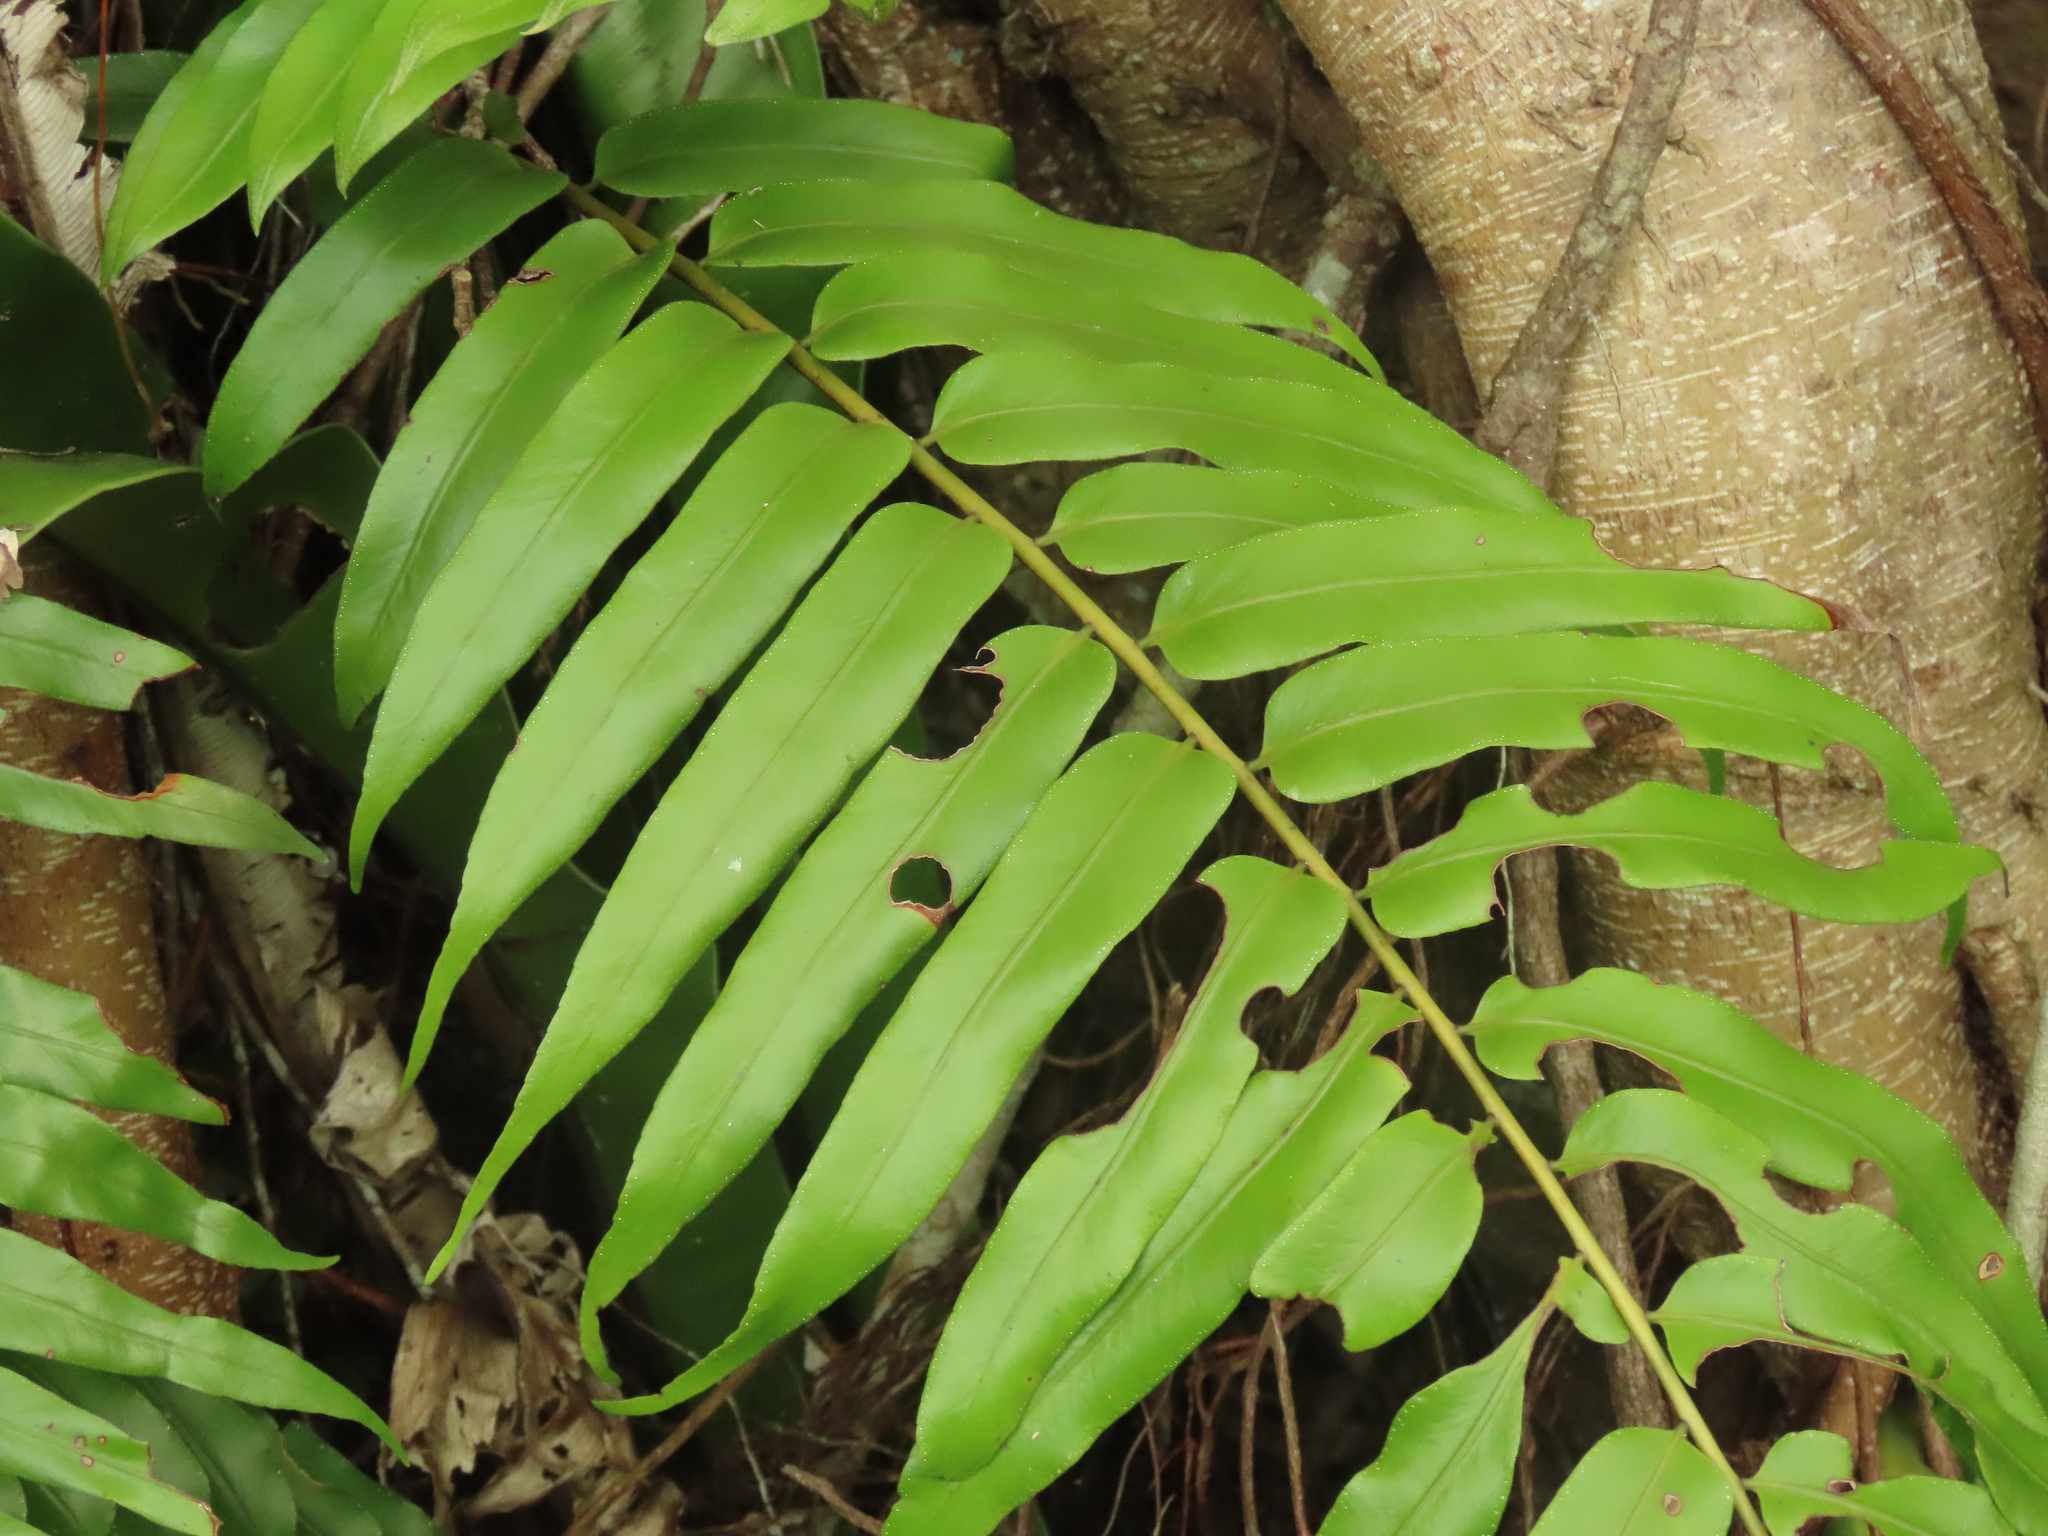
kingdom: Plantae
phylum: Tracheophyta
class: Polypodiopsida
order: Polypodiales
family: Nephrolepidaceae
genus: Nephrolepis
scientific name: Nephrolepis biserrata
